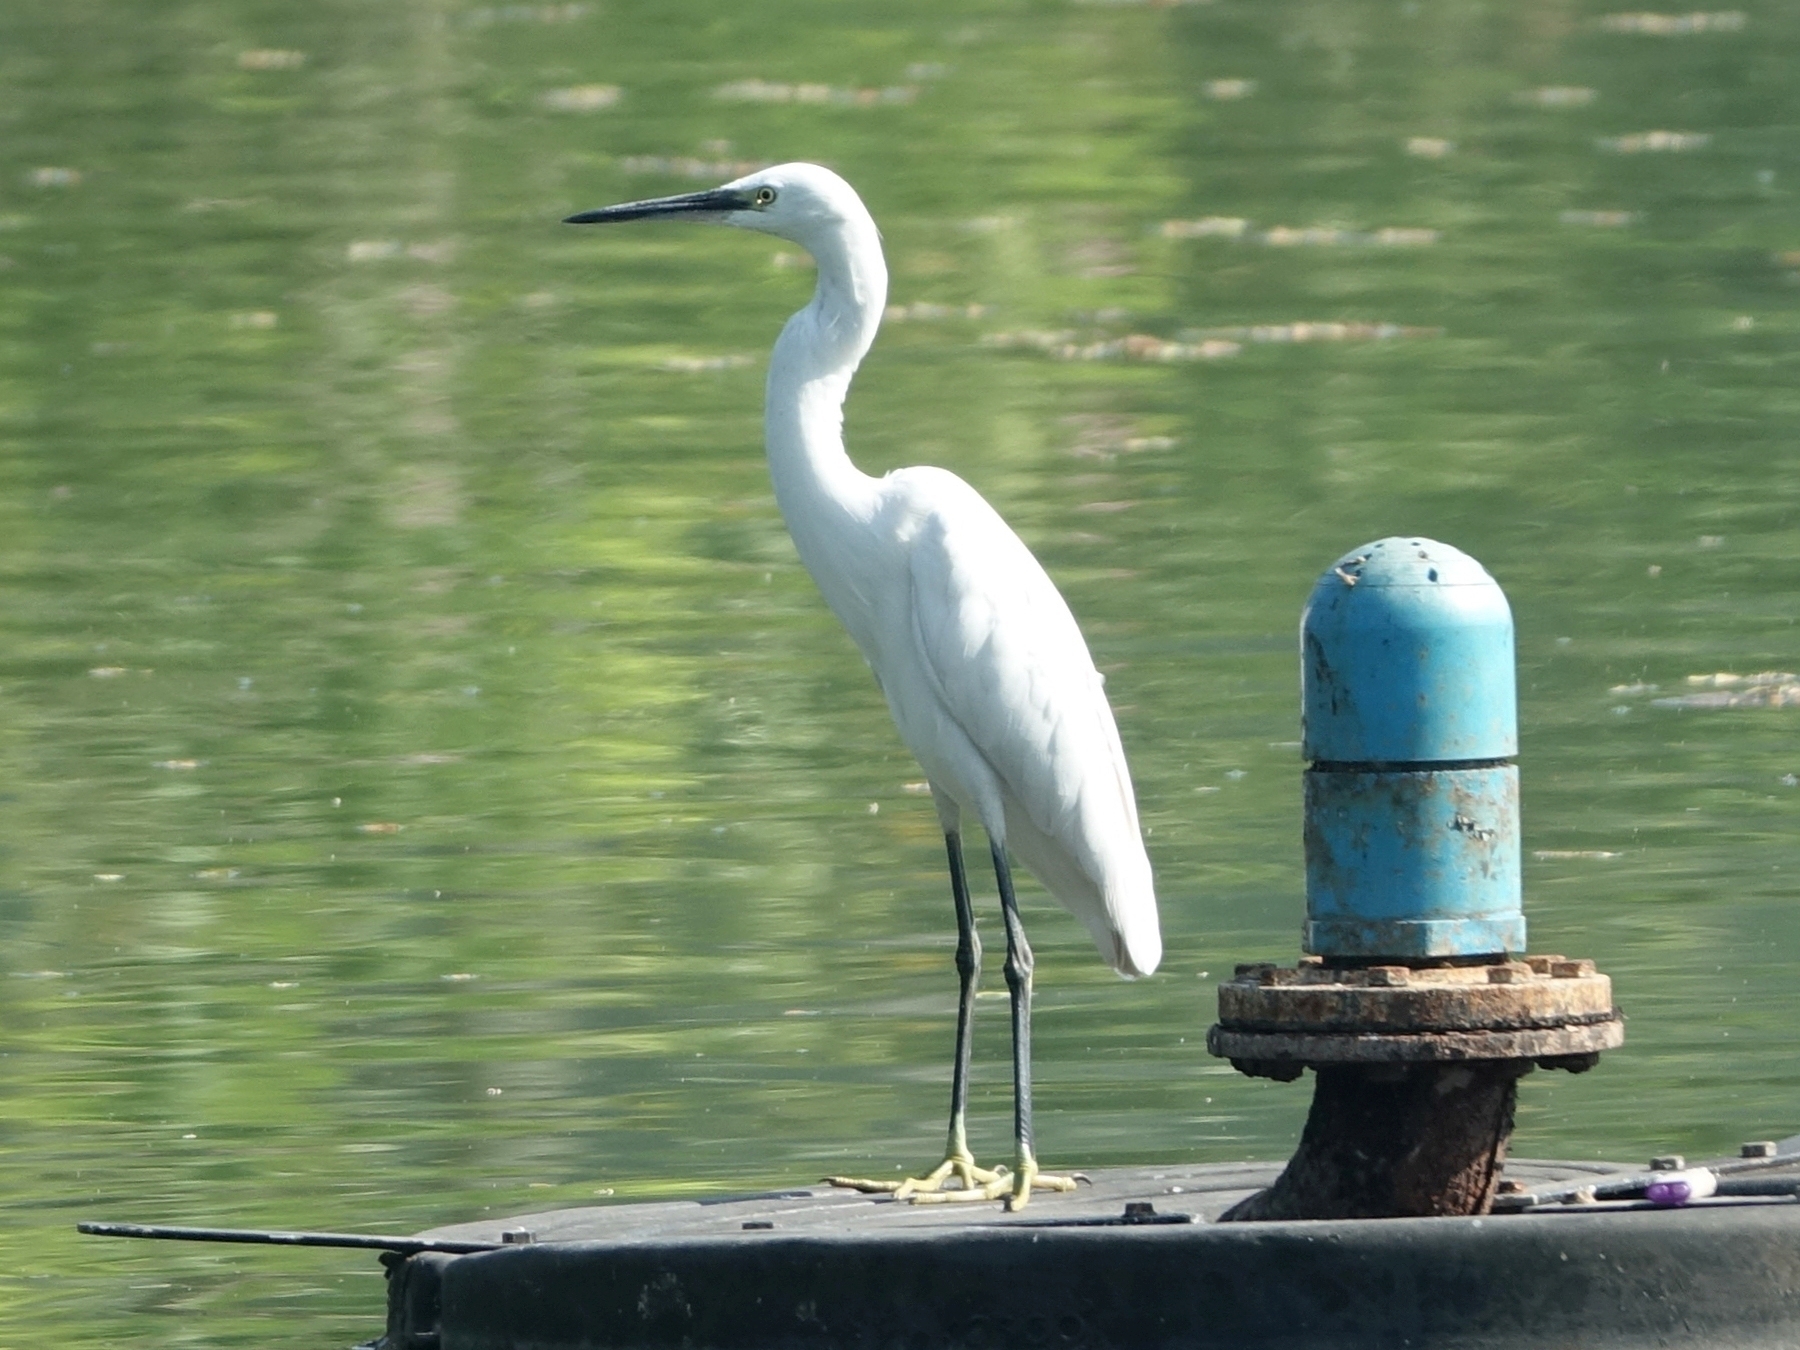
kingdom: Animalia
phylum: Chordata
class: Aves
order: Pelecaniformes
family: Ardeidae
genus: Egretta
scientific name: Egretta garzetta
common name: Little egret
